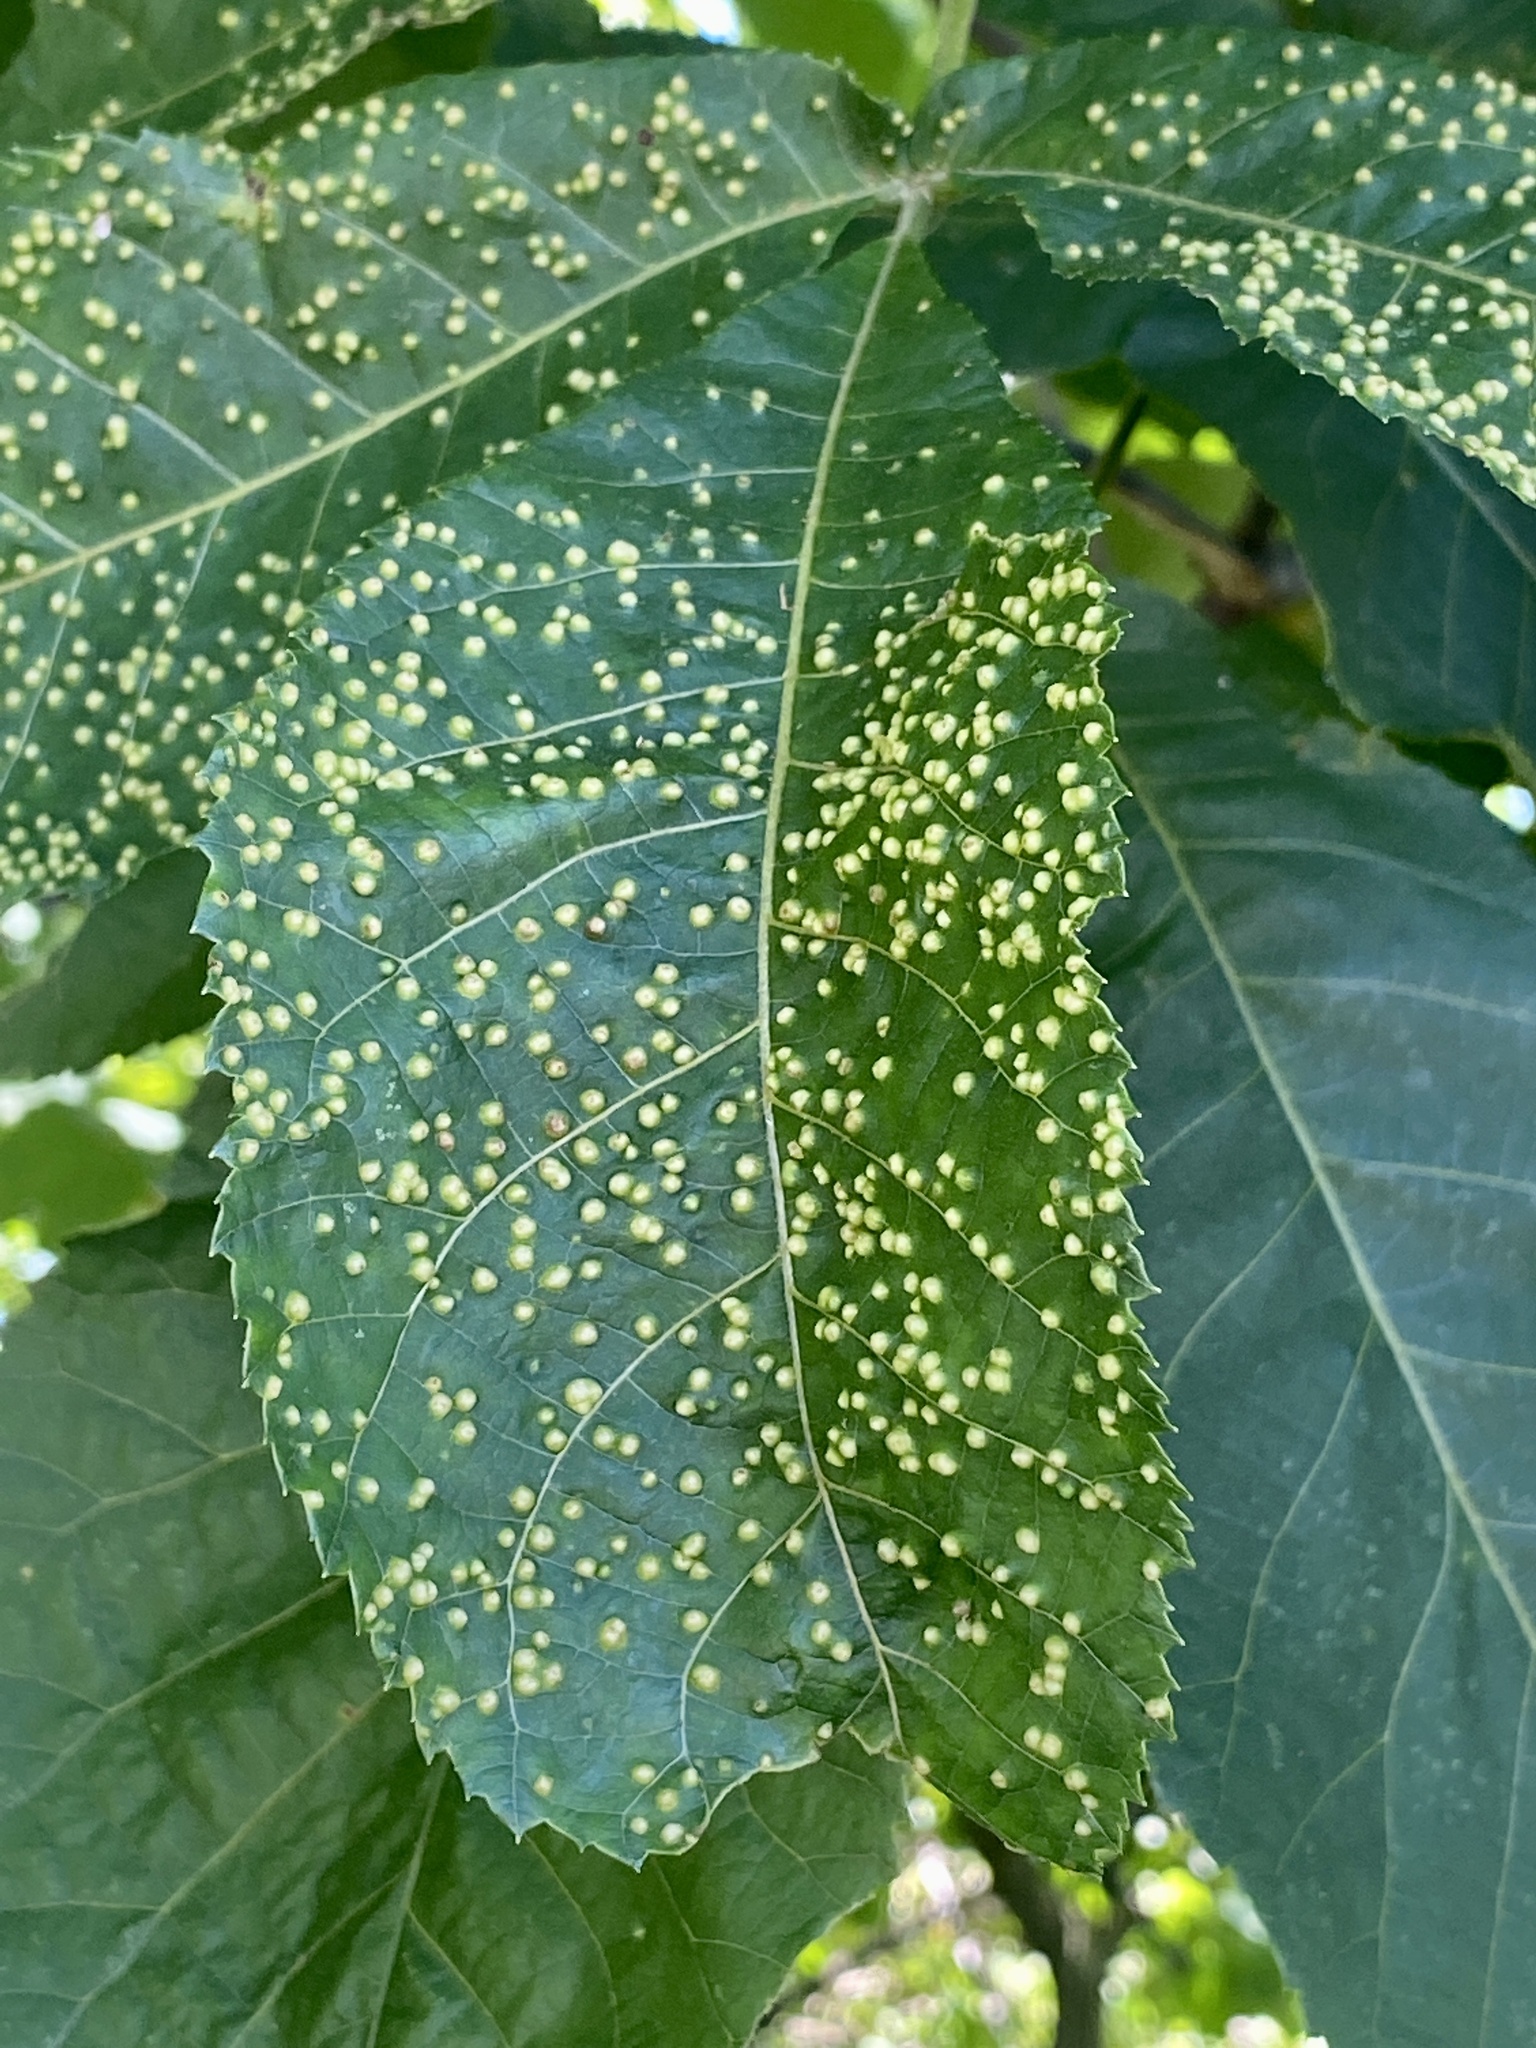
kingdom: Animalia
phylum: Arthropoda
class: Insecta
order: Hemiptera
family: Phylloxeridae
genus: Phylloxera
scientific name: Phylloxera caryae-semen
